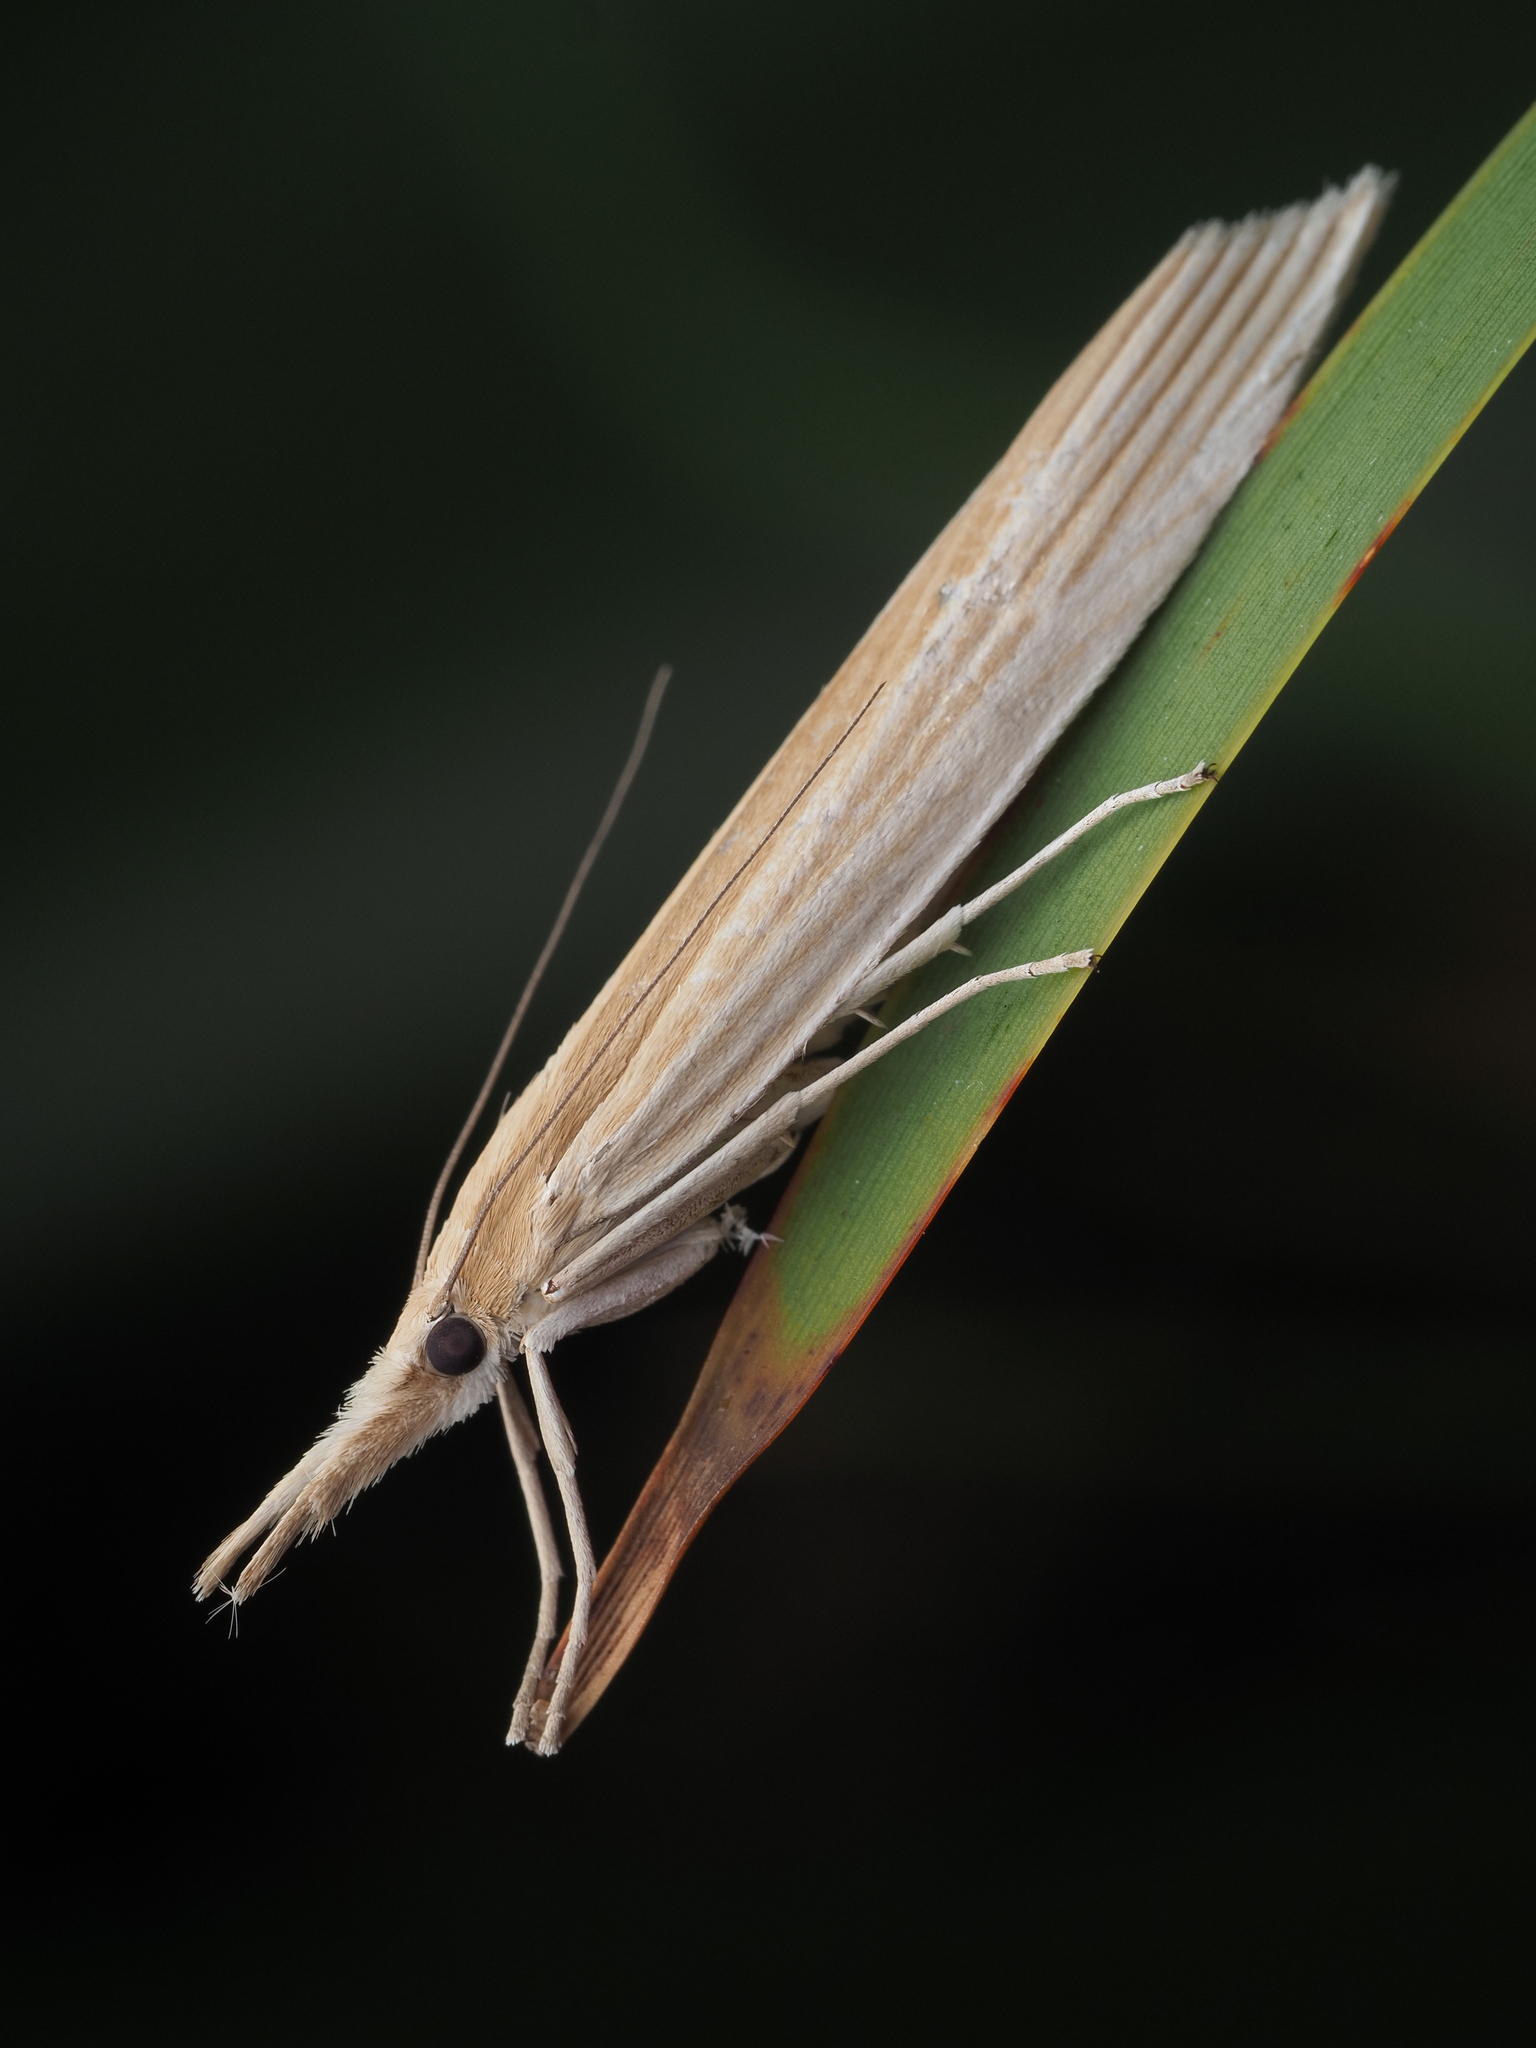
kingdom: Animalia
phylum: Arthropoda
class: Insecta
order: Lepidoptera
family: Crambidae
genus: Orocrambus
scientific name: Orocrambus angustipennis
